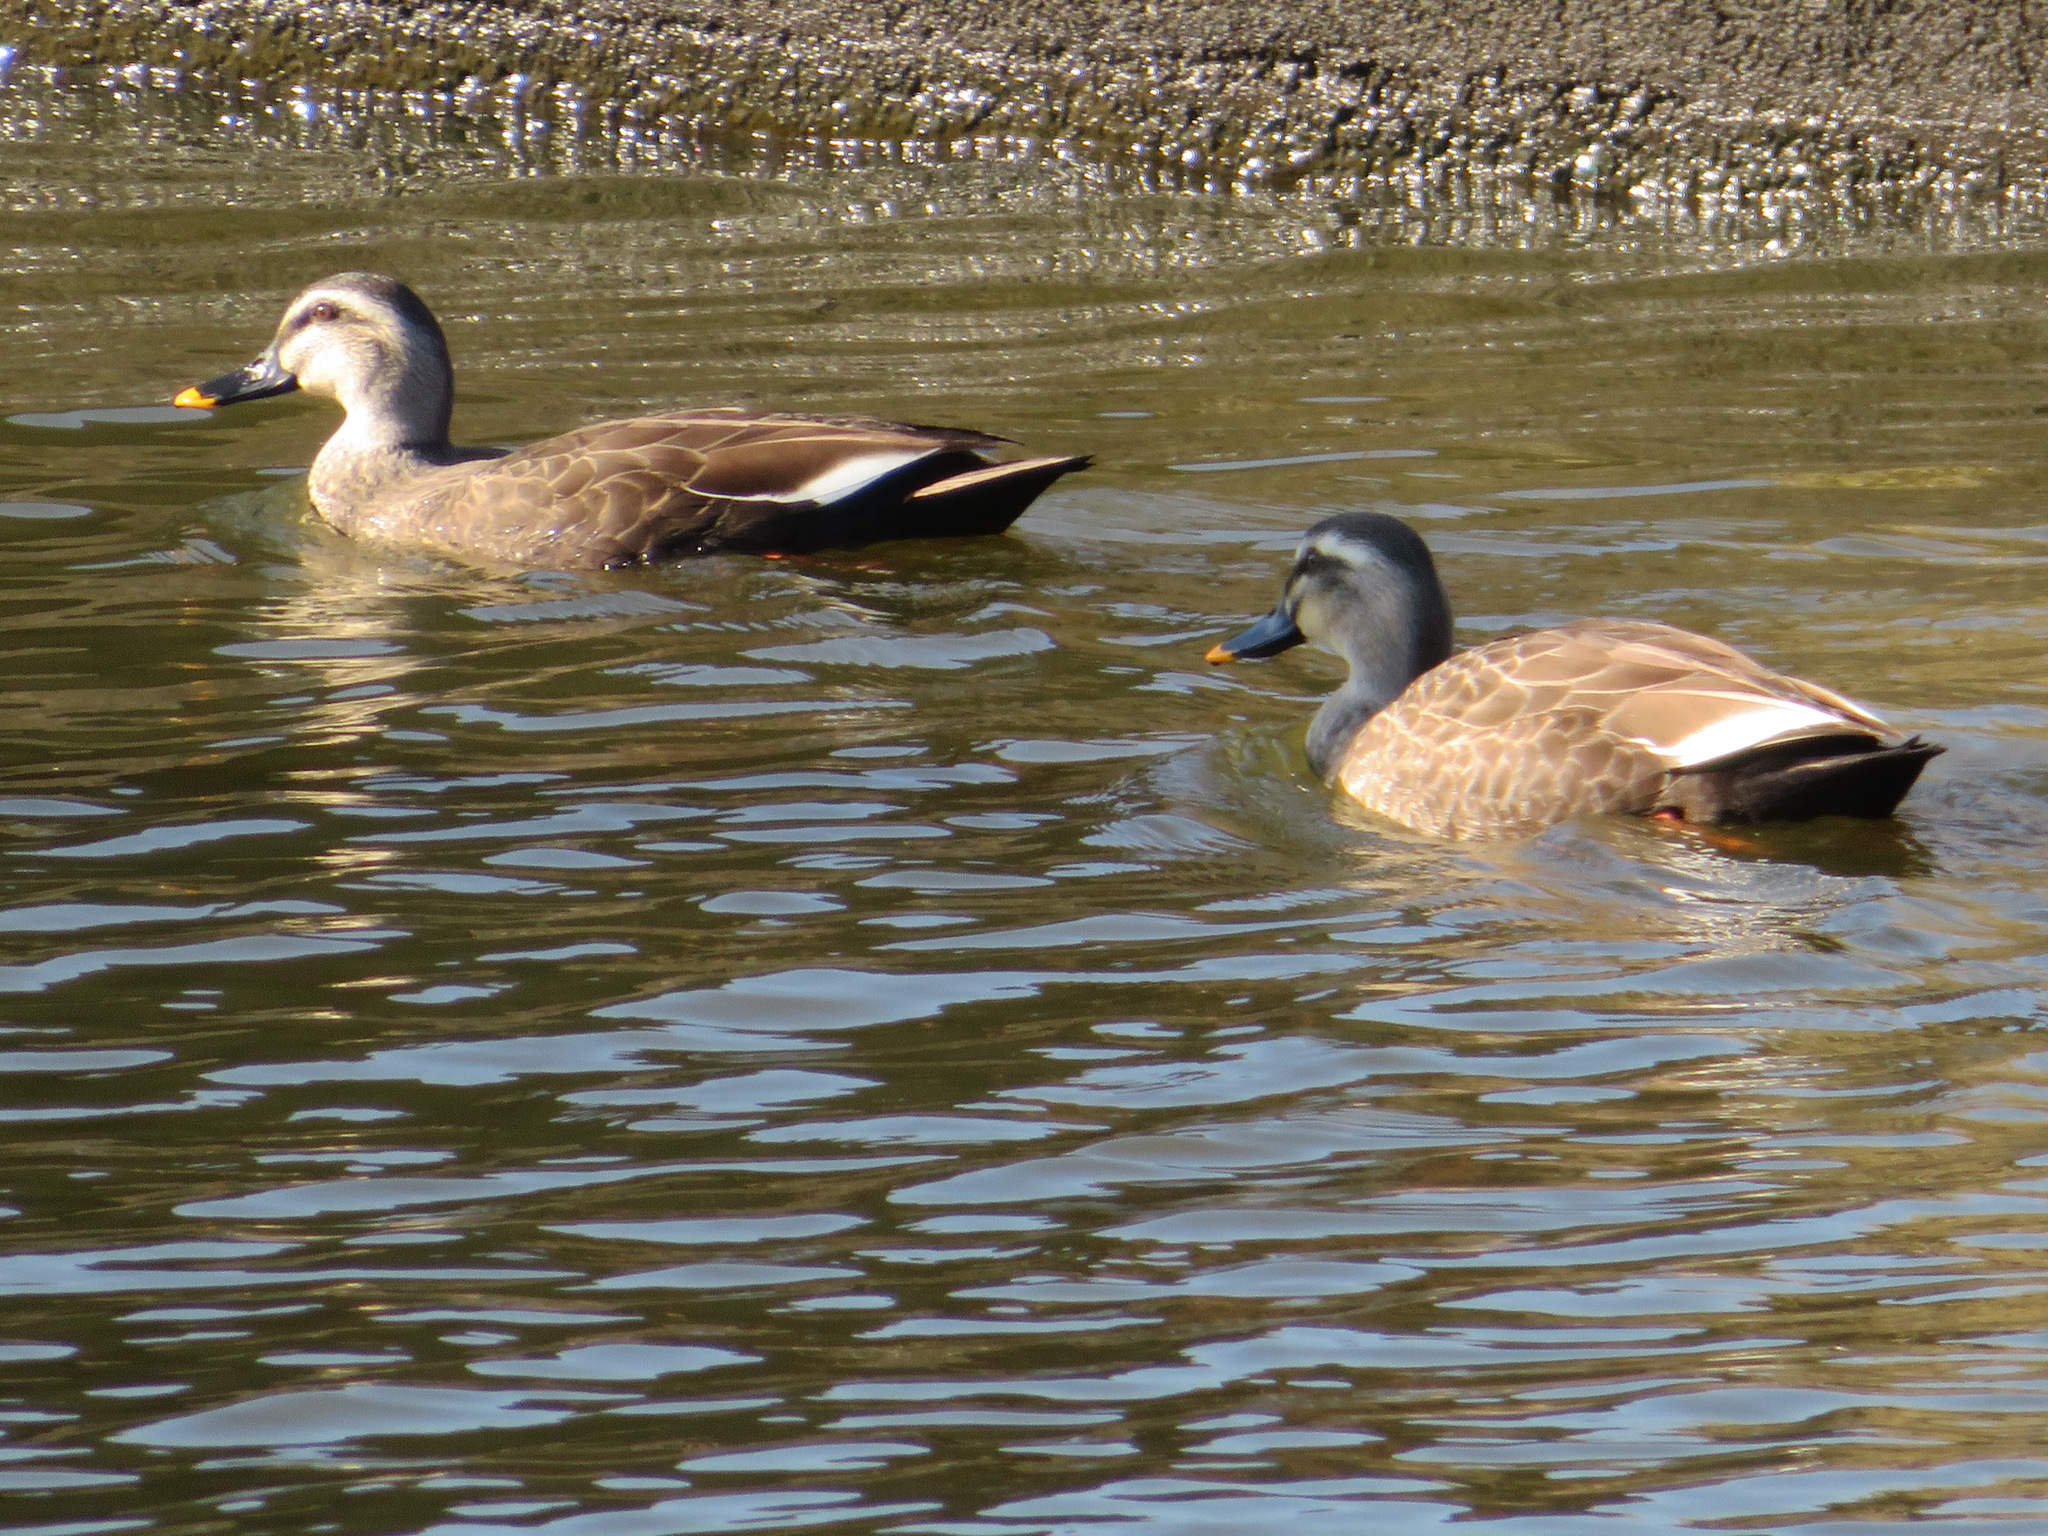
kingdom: Animalia
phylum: Chordata
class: Aves
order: Anseriformes
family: Anatidae
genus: Anas
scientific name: Anas
